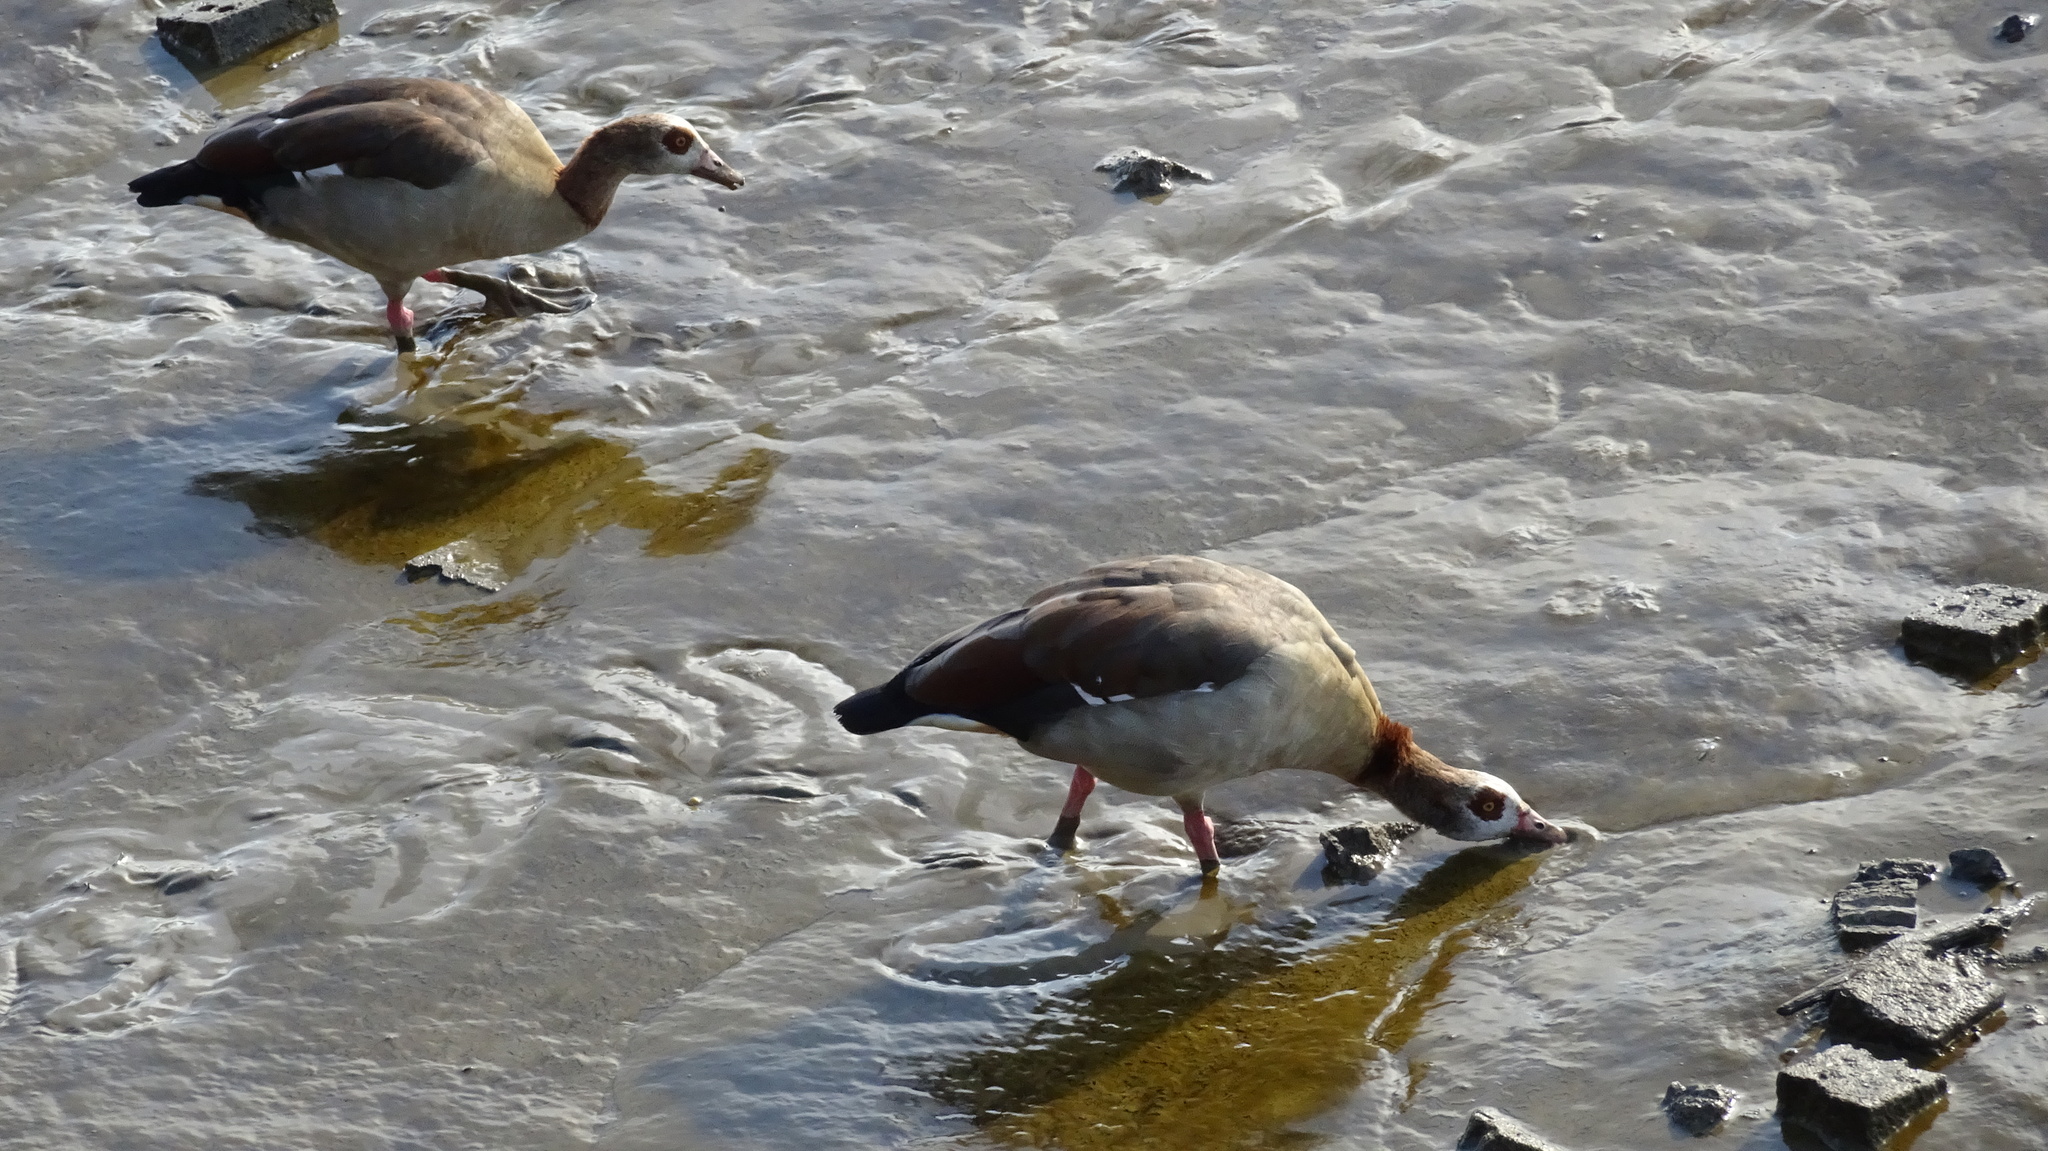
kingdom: Animalia
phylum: Chordata
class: Aves
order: Anseriformes
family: Anatidae
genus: Alopochen
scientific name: Alopochen aegyptiaca
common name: Egyptian goose
